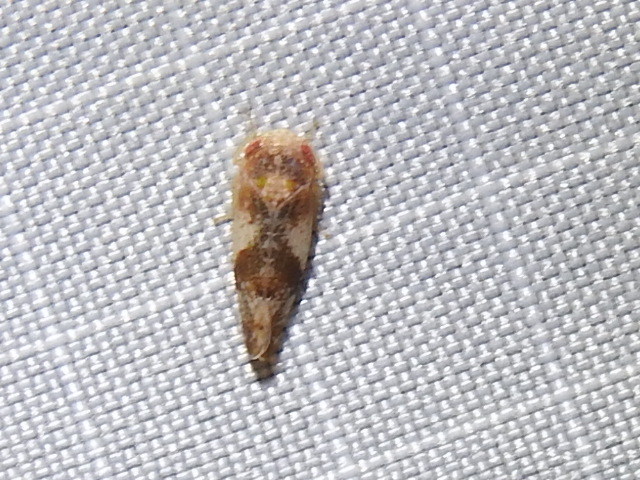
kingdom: Animalia
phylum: Arthropoda
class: Insecta
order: Hemiptera
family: Cicadellidae
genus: Norvellina
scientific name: Norvellina helenae
